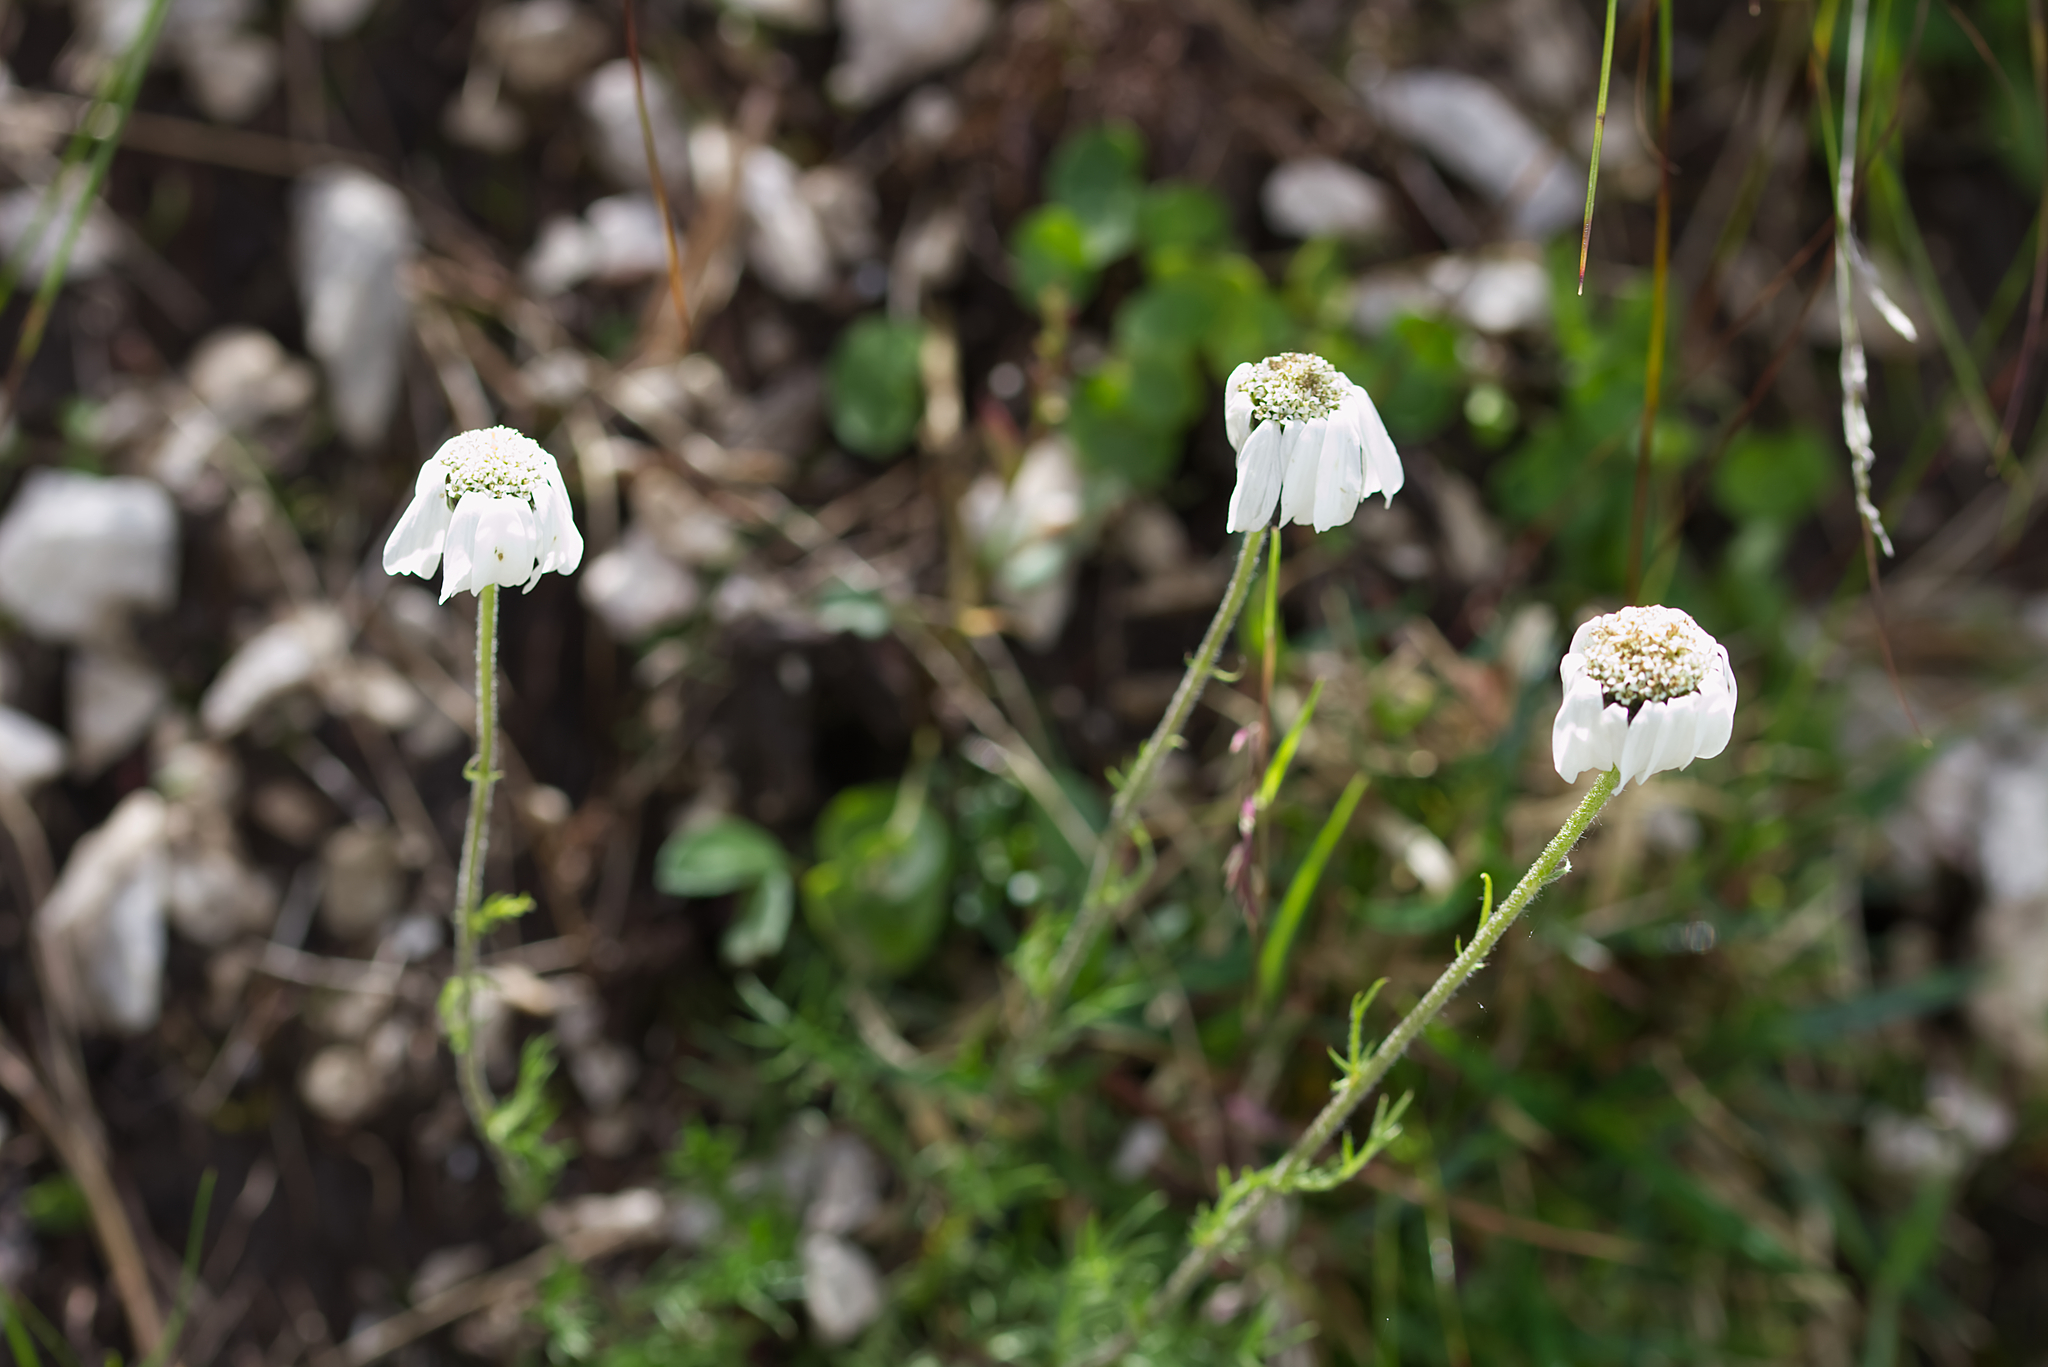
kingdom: Plantae
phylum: Tracheophyta
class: Magnoliopsida
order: Asterales
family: Asteraceae
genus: Achillea
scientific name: Achillea oxyloba
